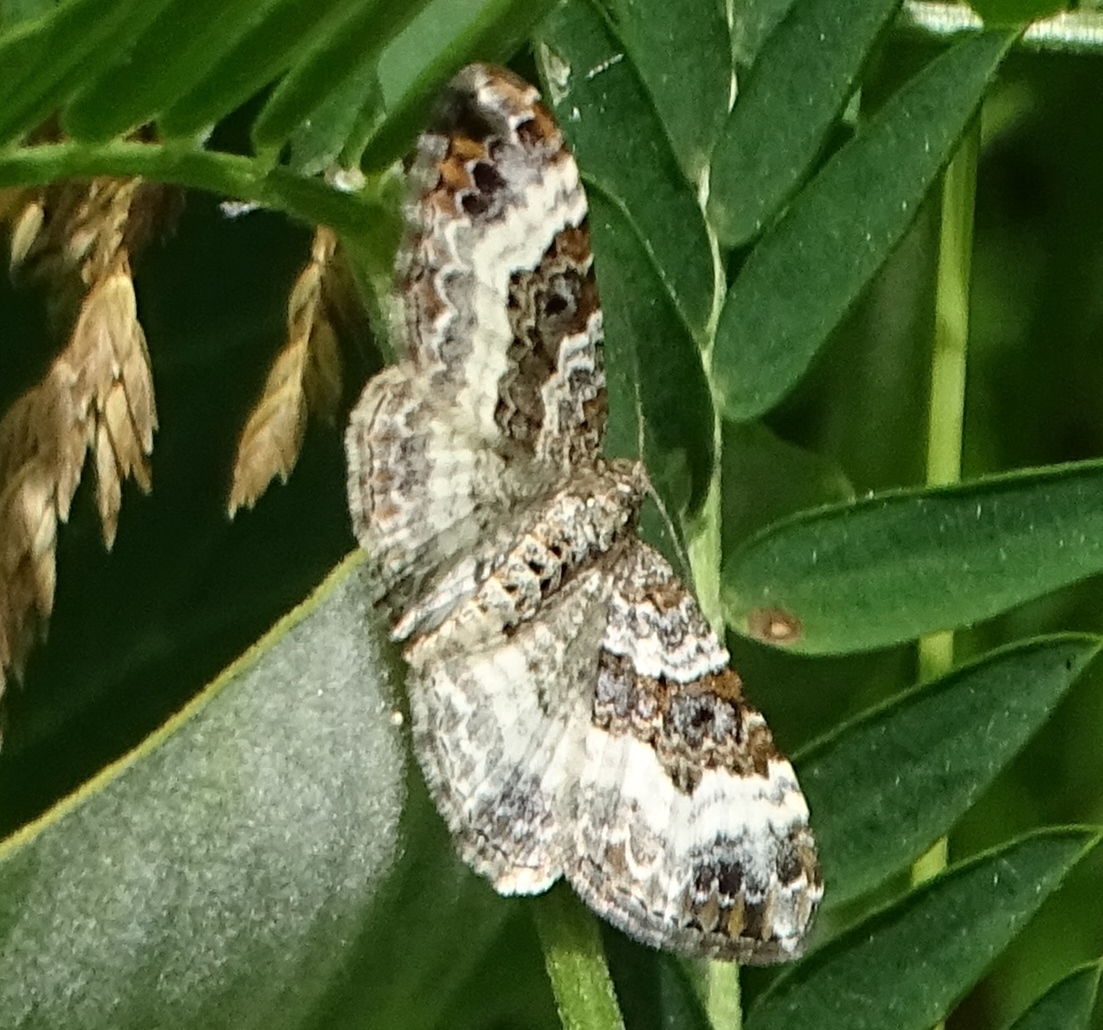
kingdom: Animalia
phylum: Arthropoda
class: Insecta
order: Lepidoptera
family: Geometridae
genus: Epirrhoe
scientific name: Epirrhoe alternata
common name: Common carpet
